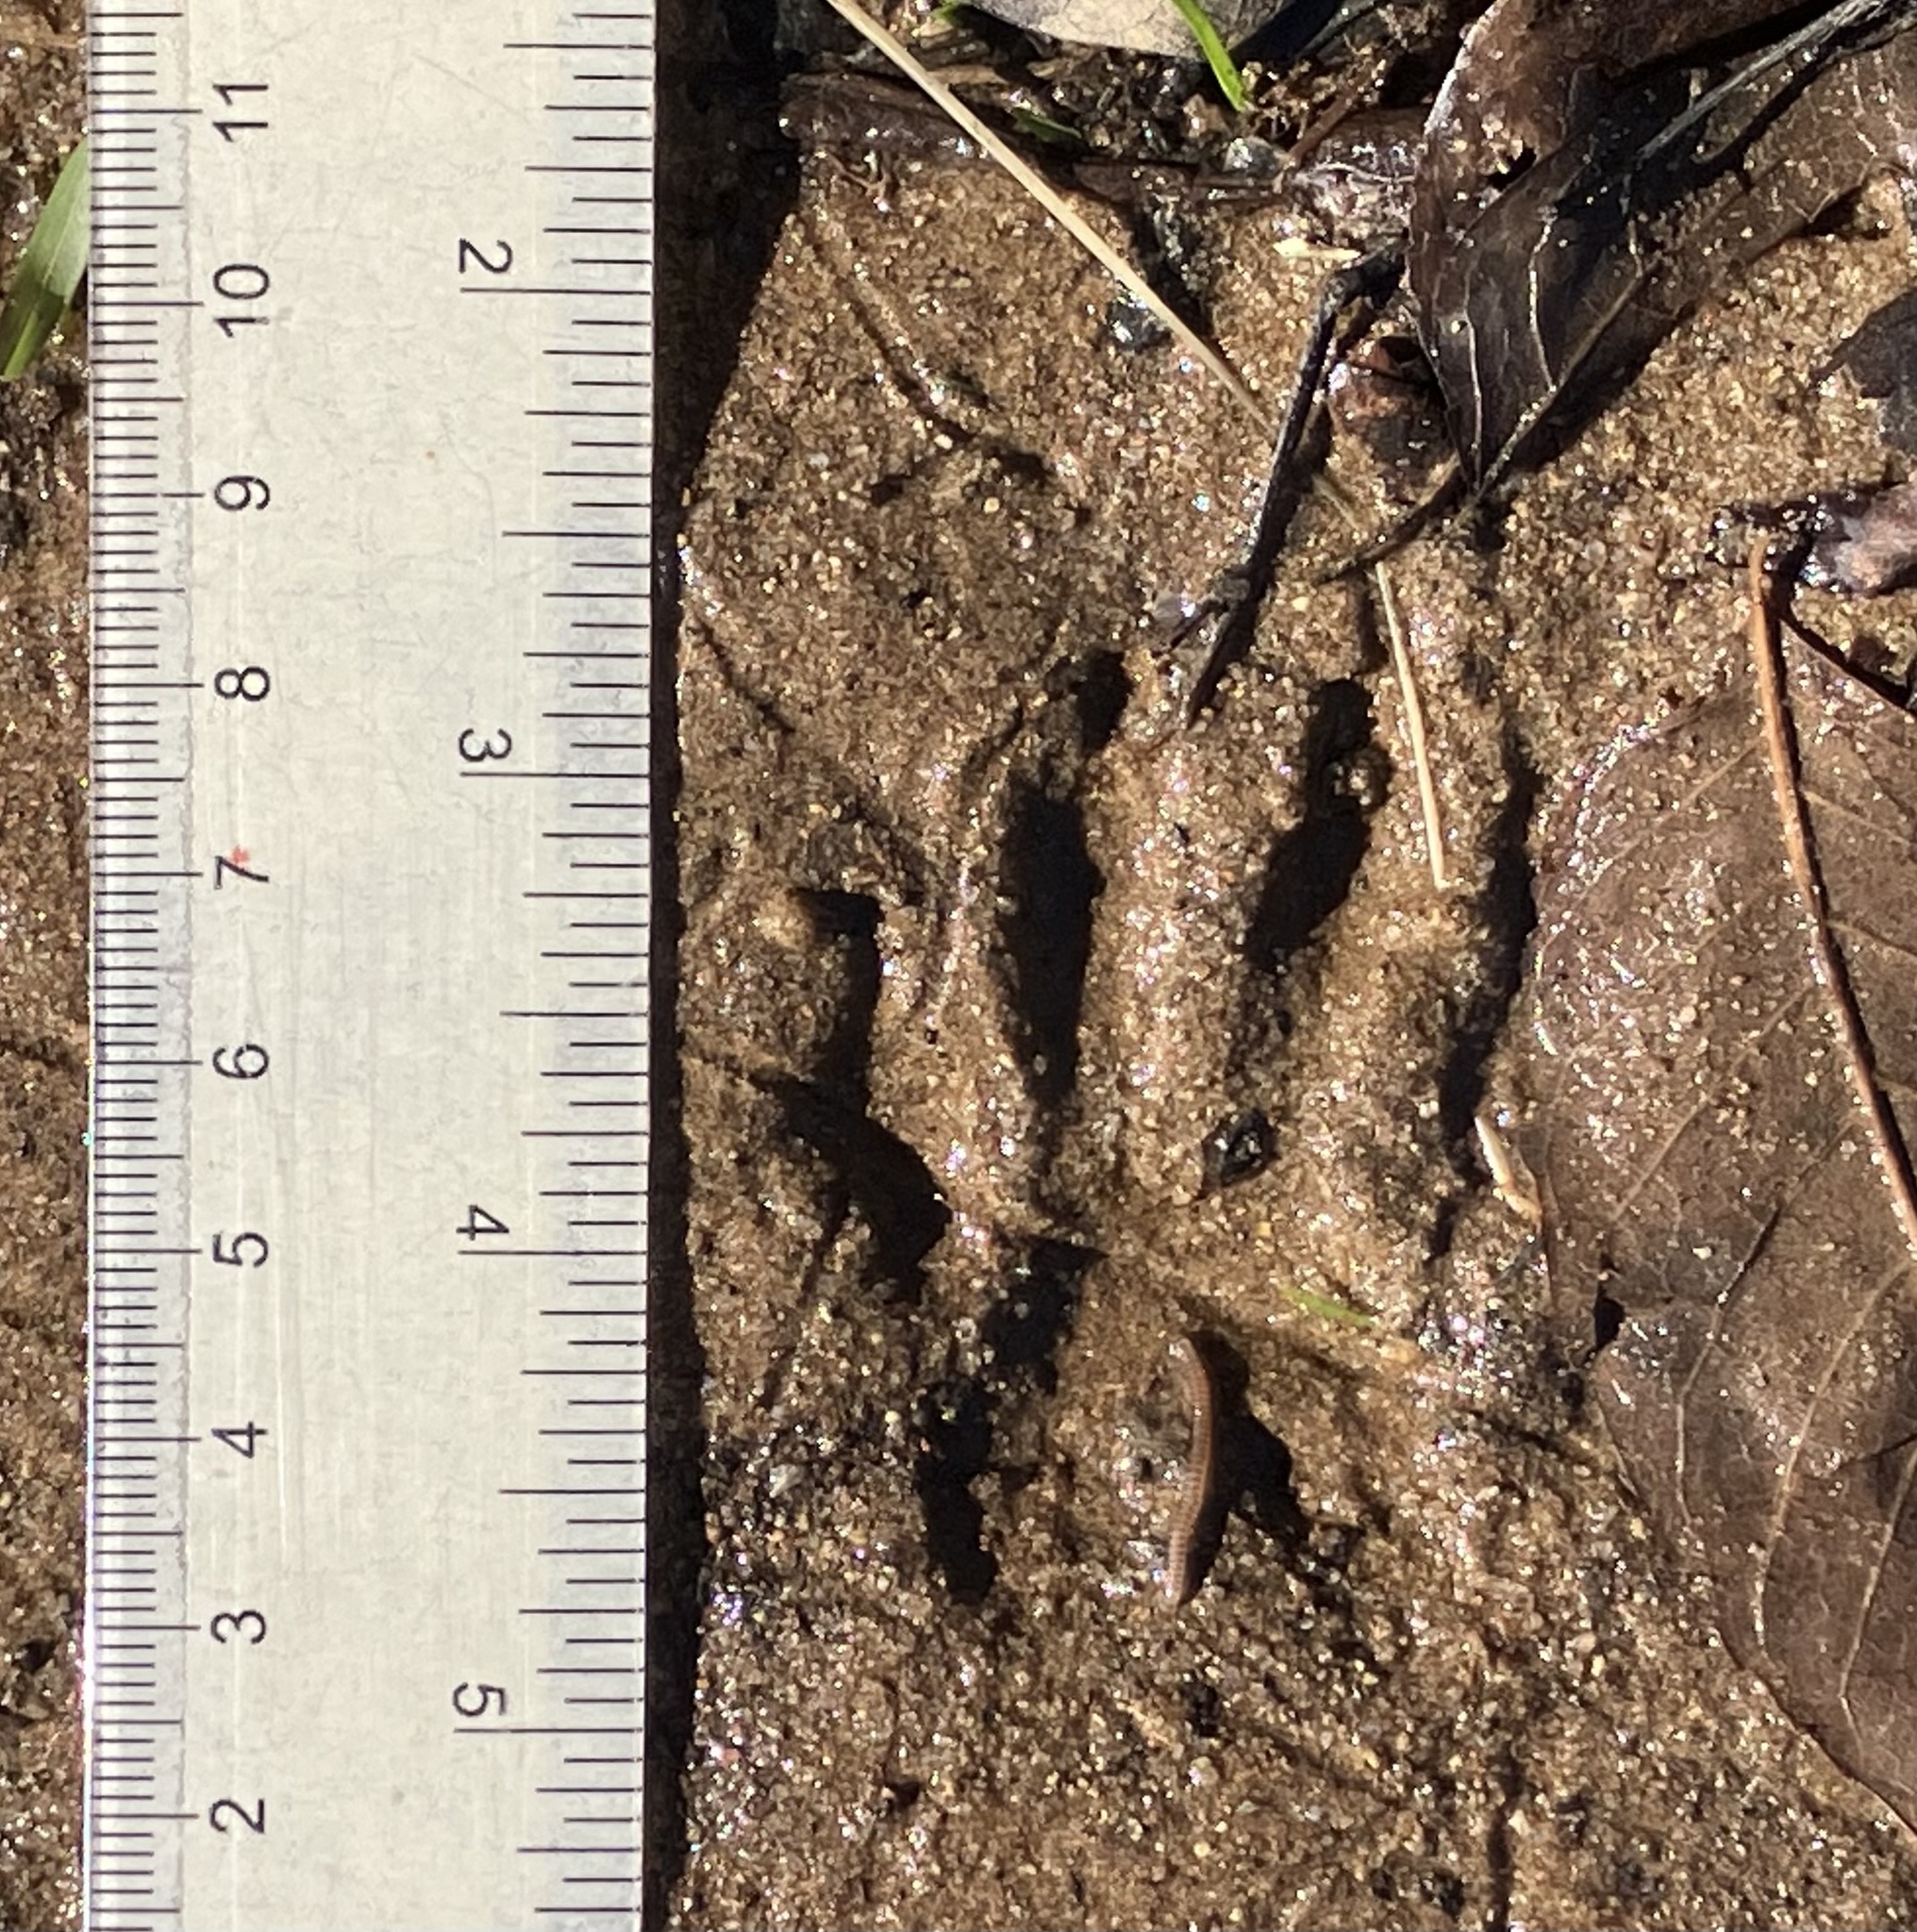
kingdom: Animalia
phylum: Chordata
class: Mammalia
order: Carnivora
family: Procyonidae
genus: Procyon
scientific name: Procyon lotor
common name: Raccoon
